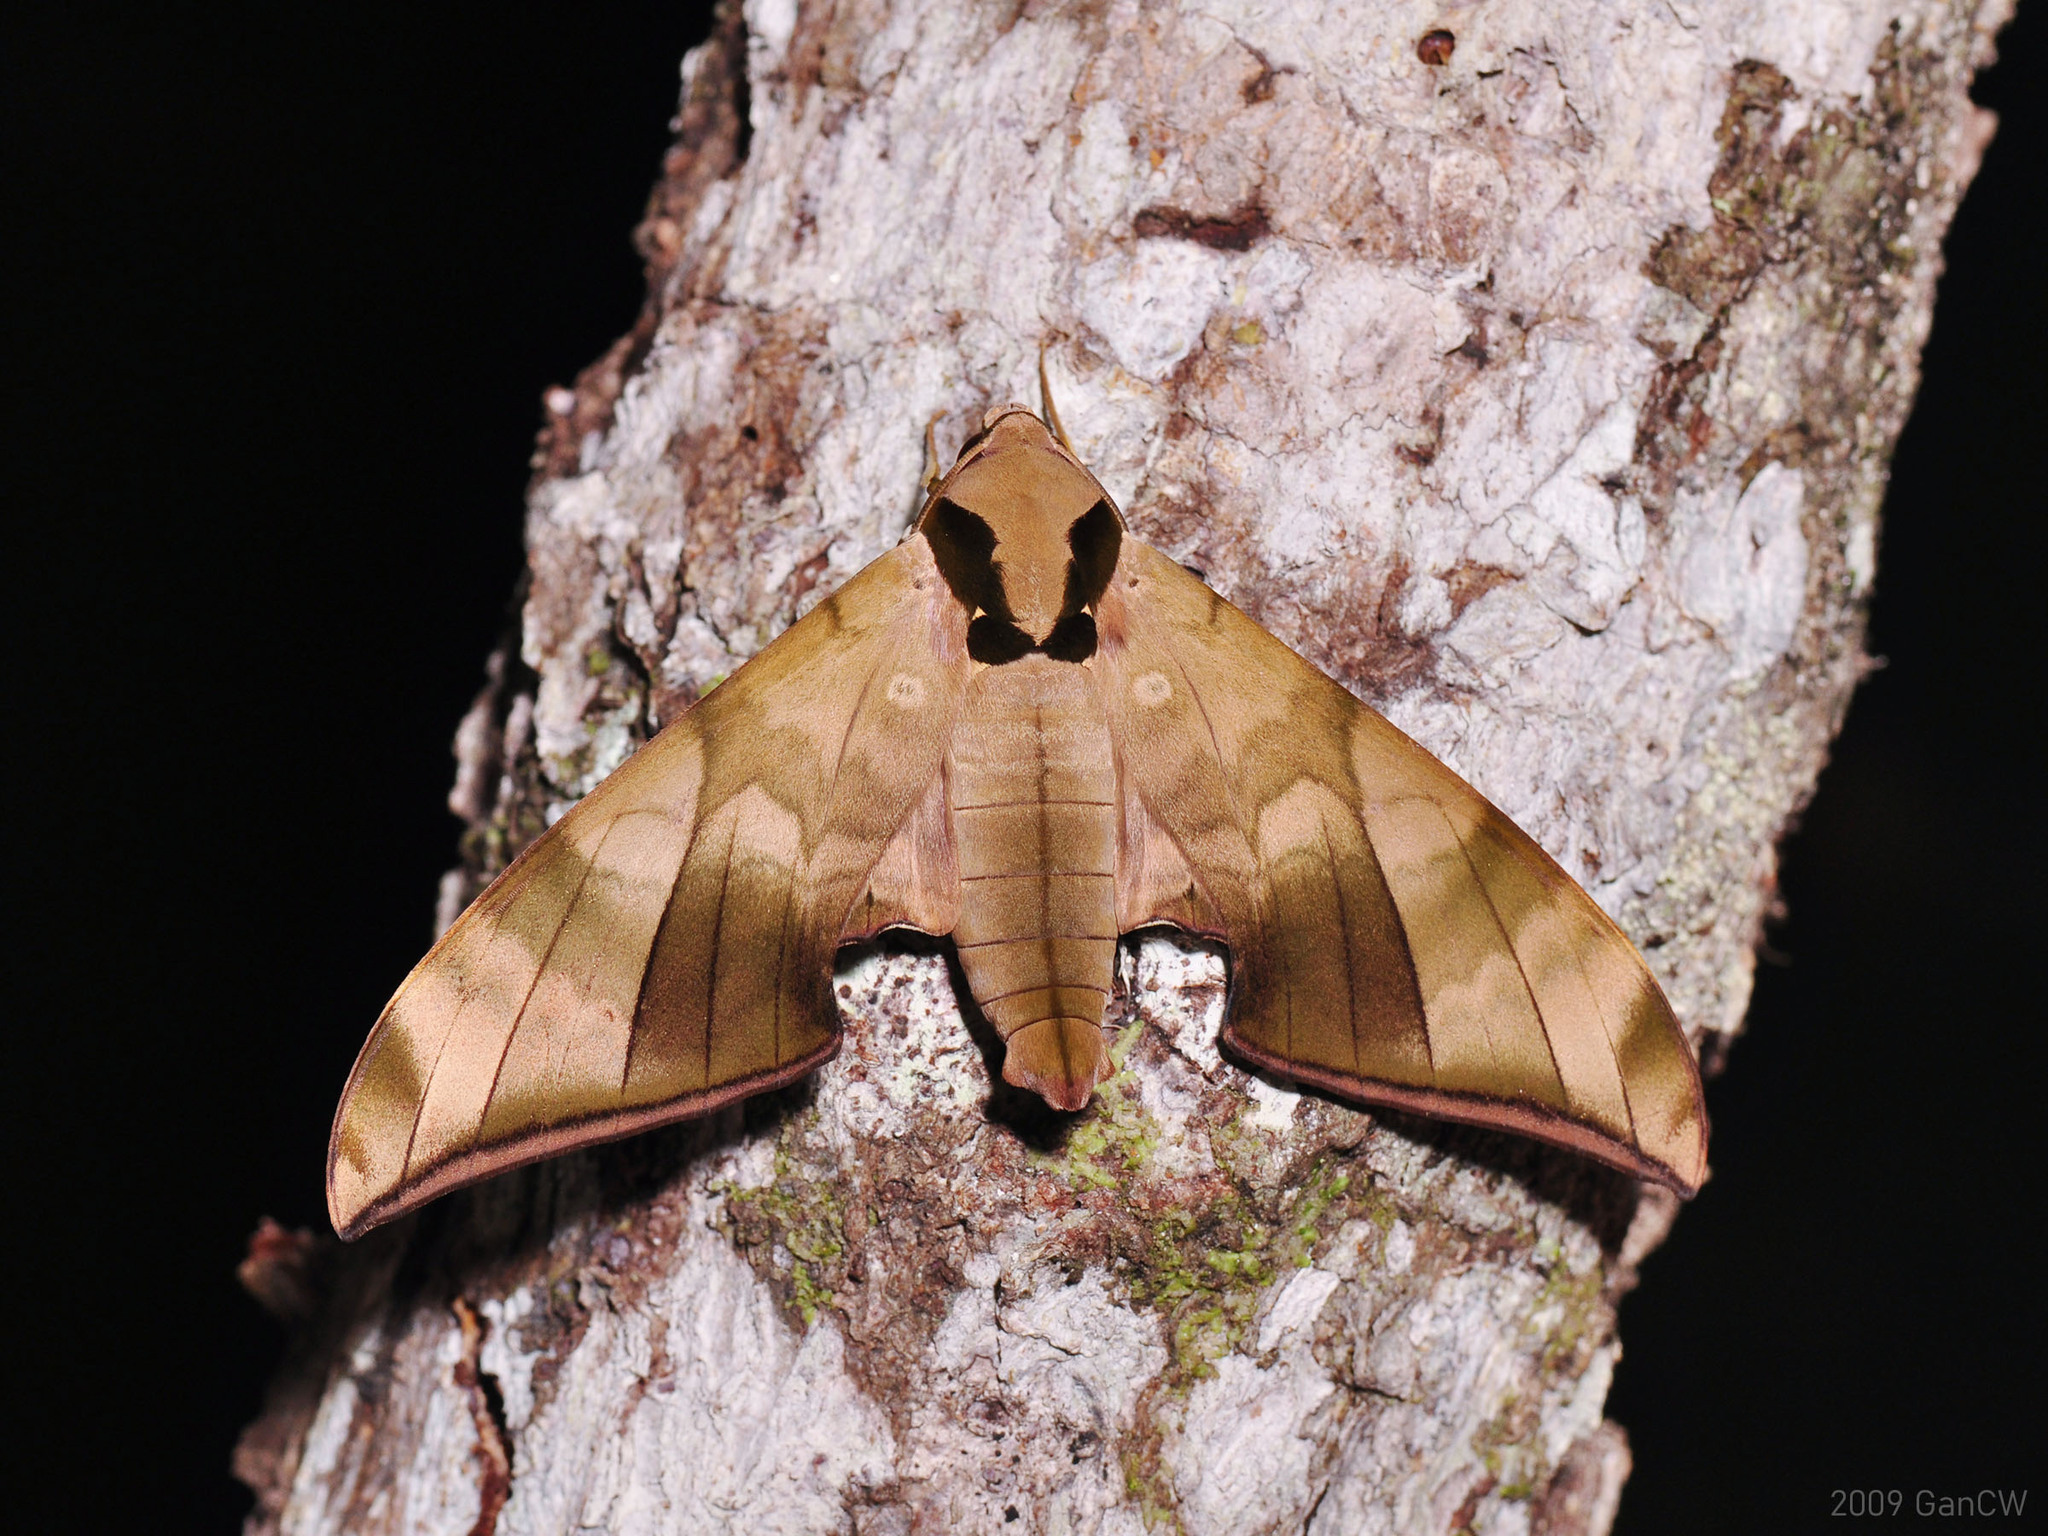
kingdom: Animalia
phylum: Arthropoda
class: Insecta
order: Lepidoptera
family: Sphingidae
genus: Ambulyx
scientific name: Ambulyx tattina
